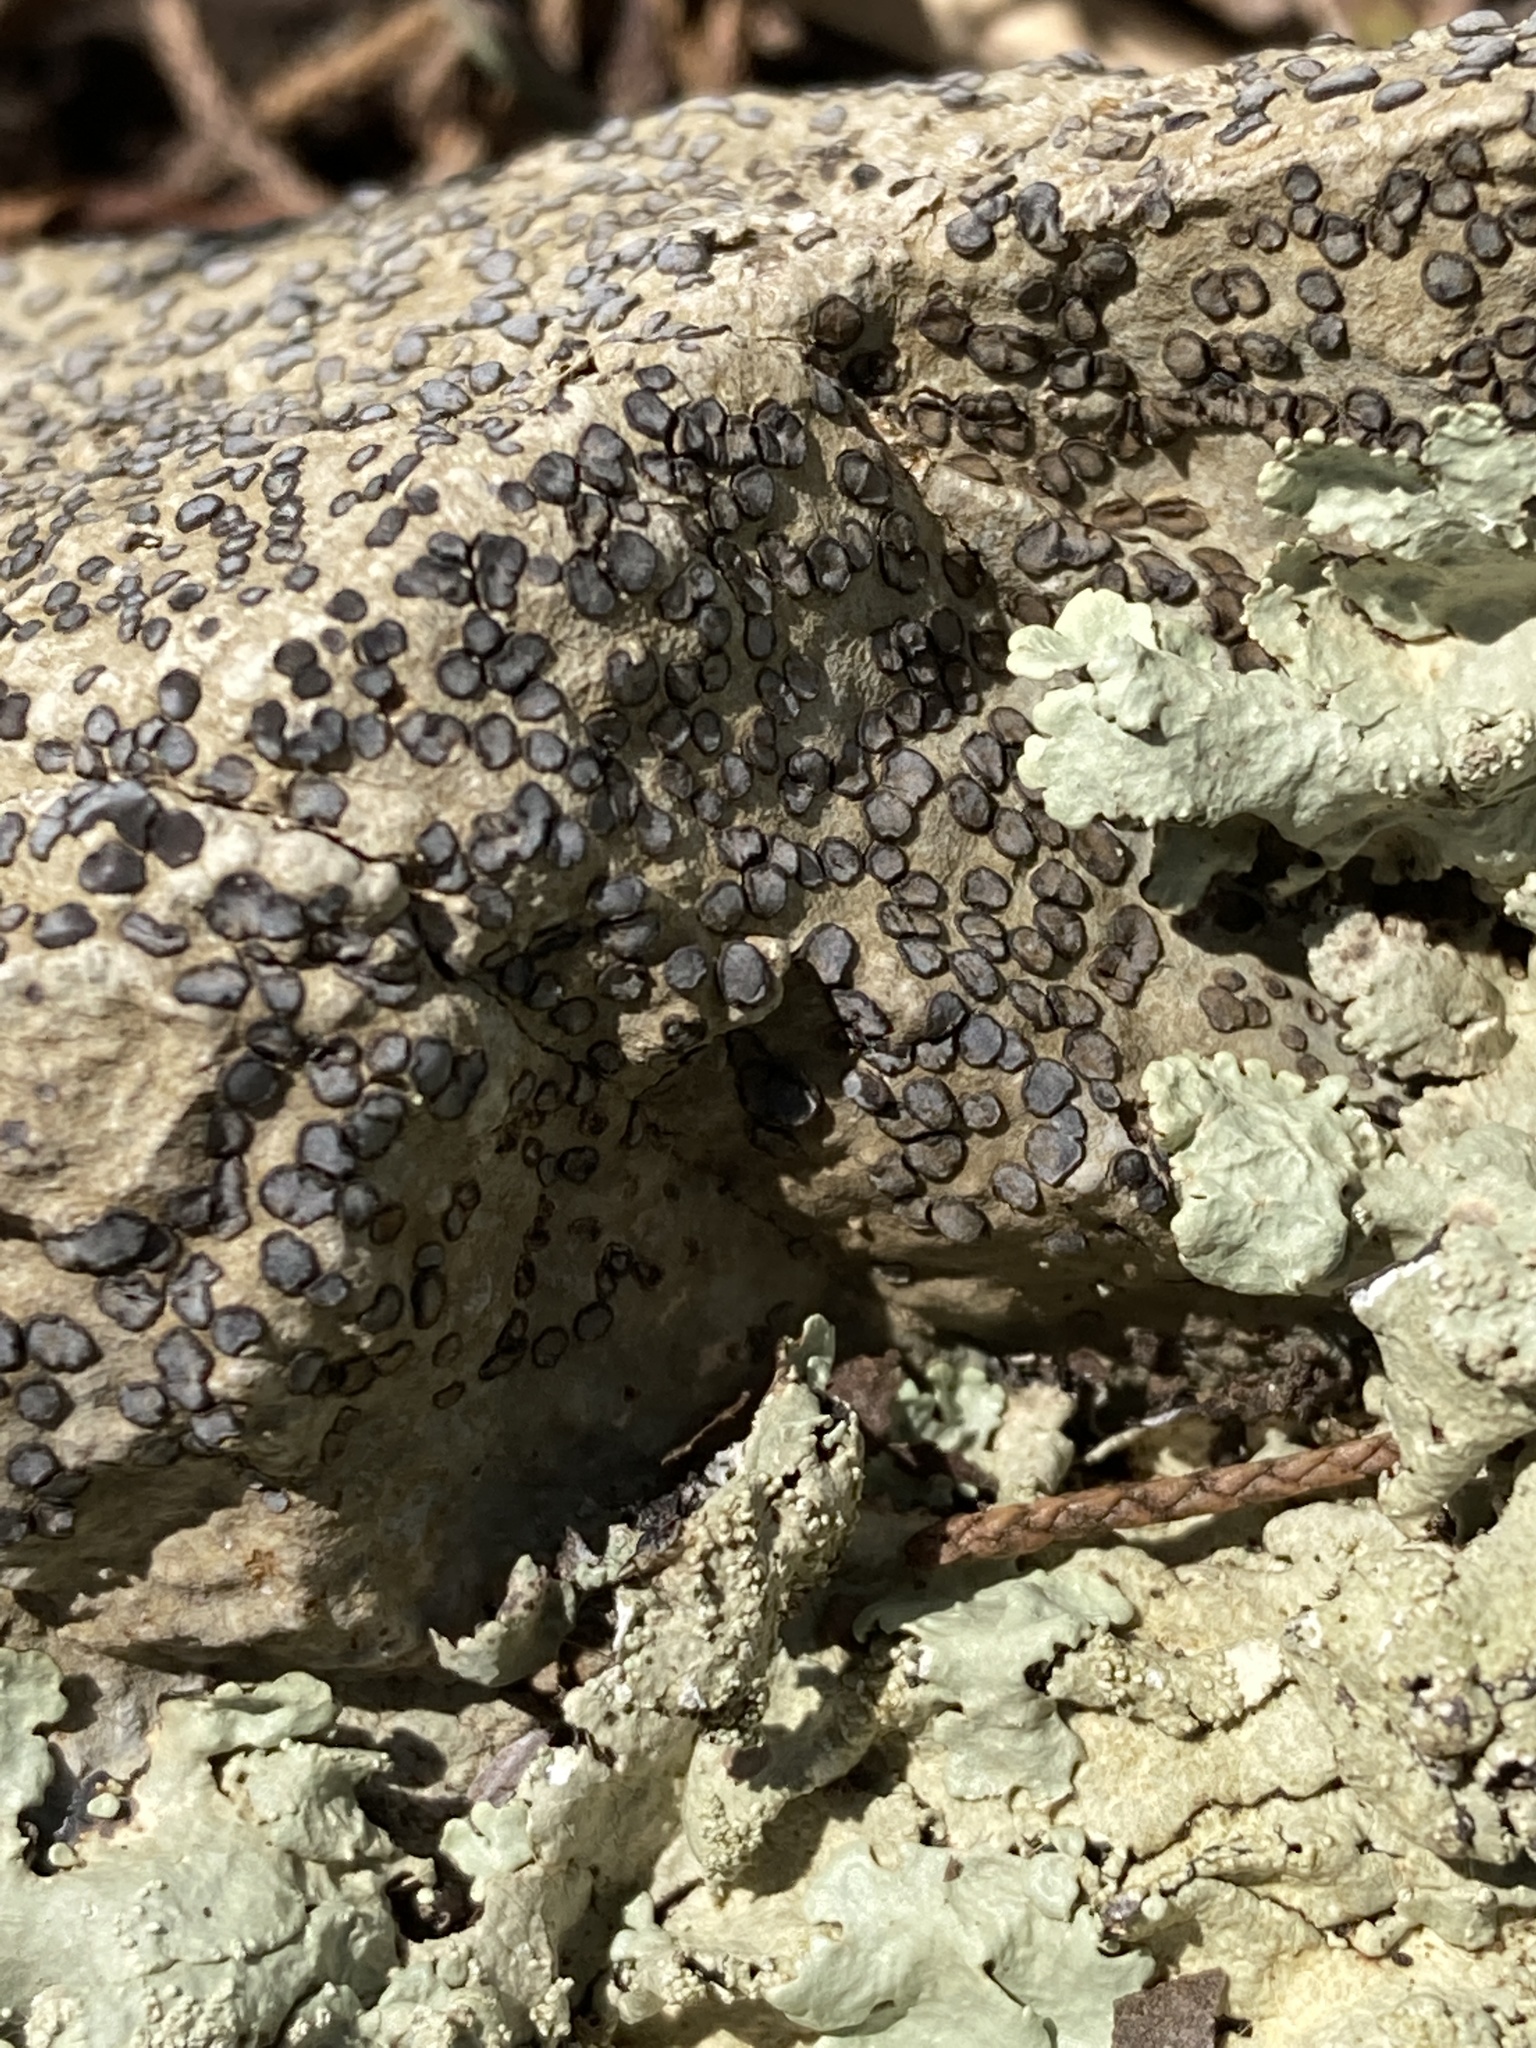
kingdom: Fungi
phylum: Ascomycota
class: Lecanoromycetes
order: Lecideales
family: Lecideaceae
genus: Porpidia
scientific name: Porpidia albocaerulescens
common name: Smokey-eyed boulder lichen
